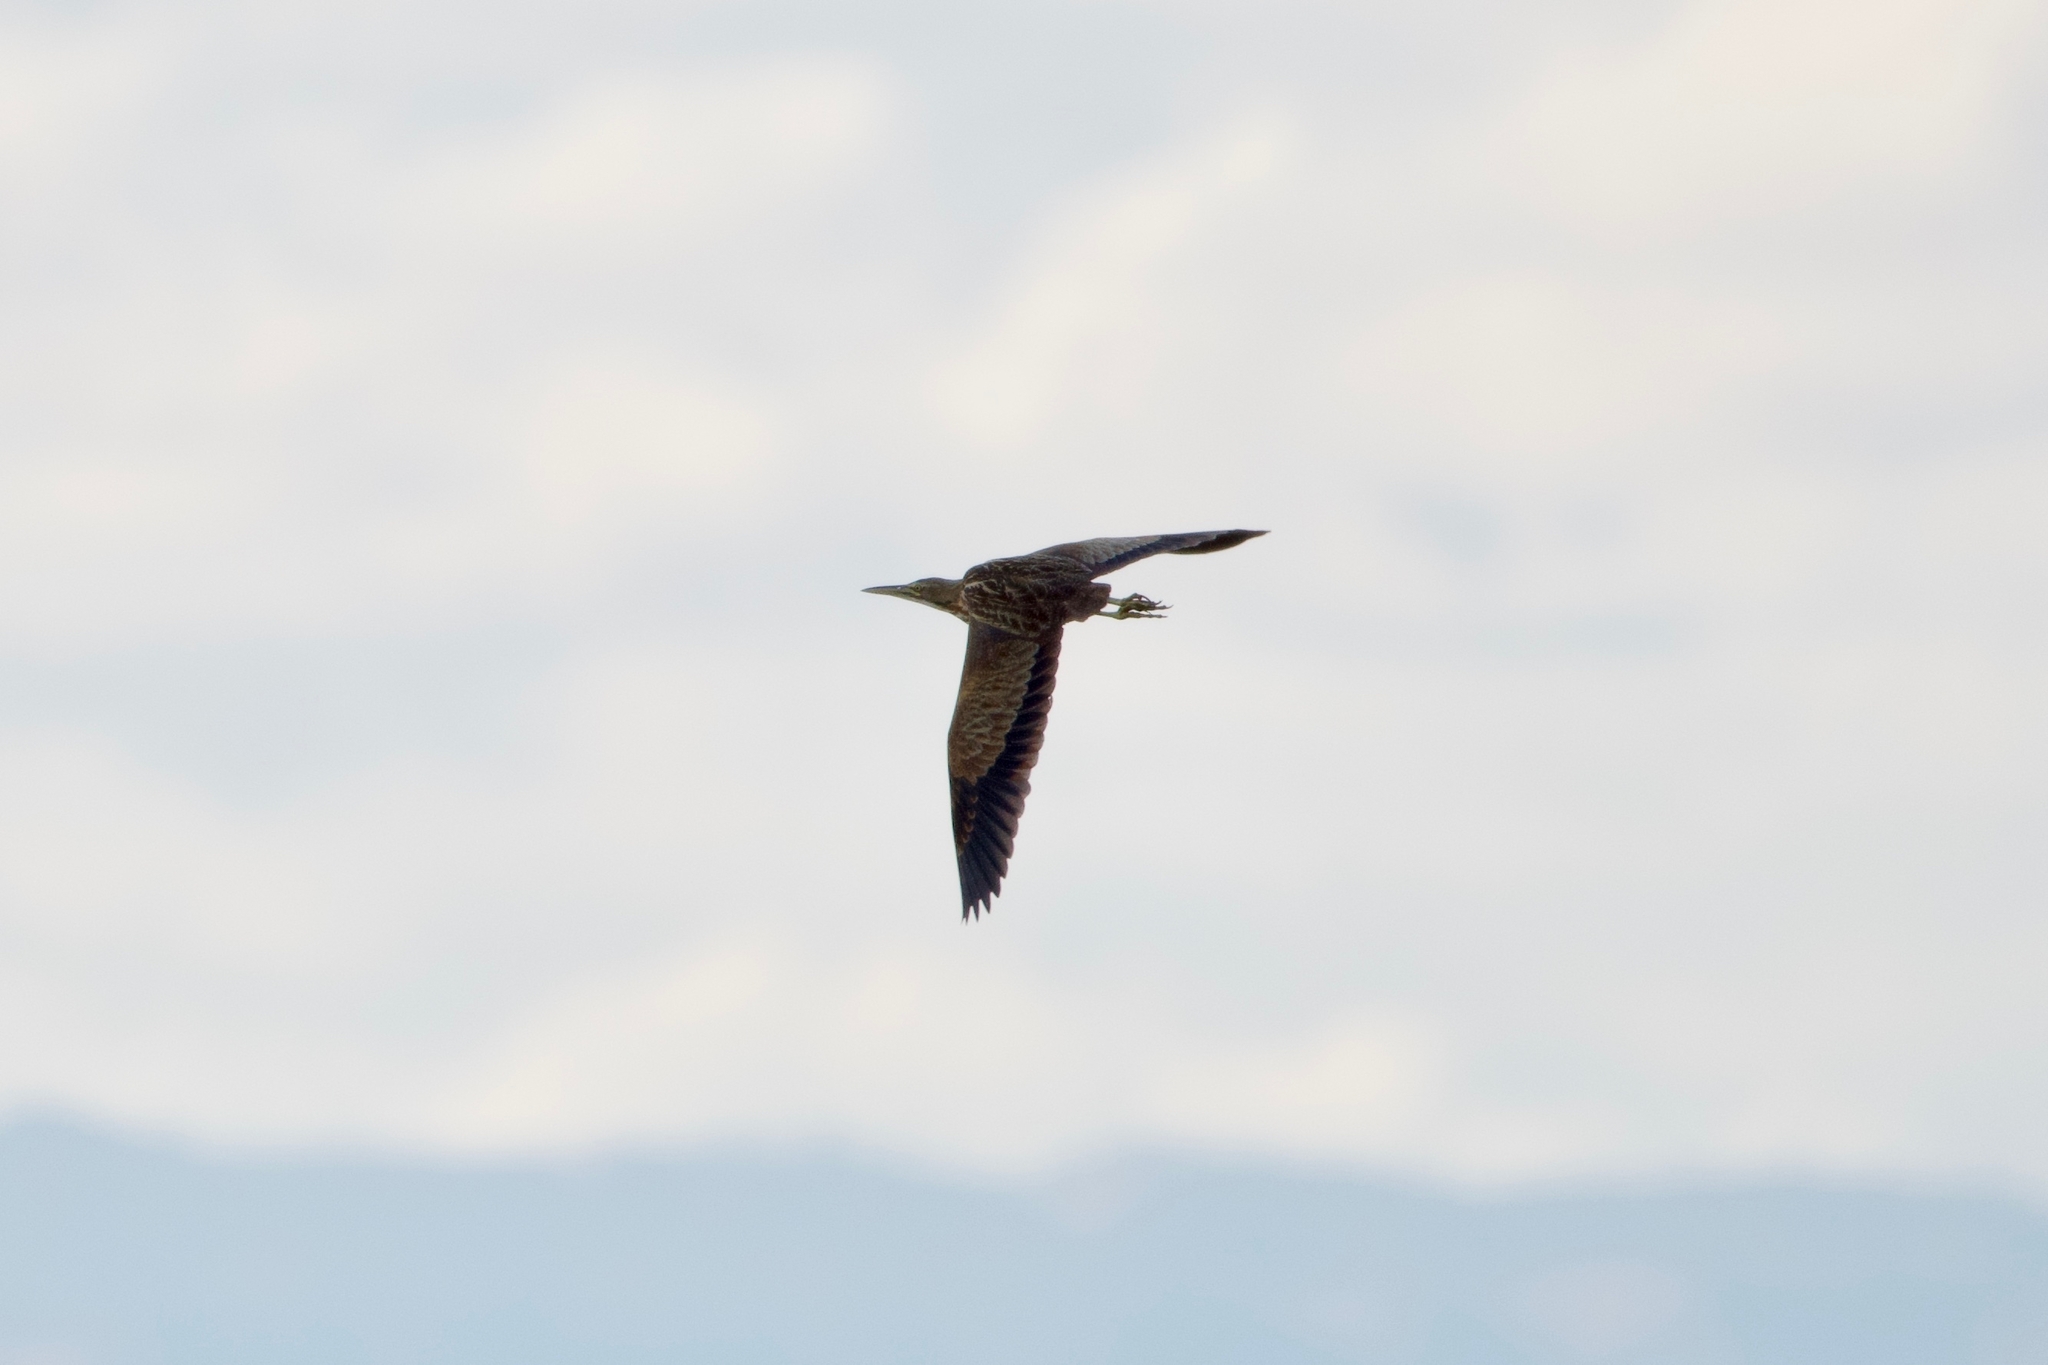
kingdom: Animalia
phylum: Chordata
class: Aves
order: Pelecaniformes
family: Ardeidae
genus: Botaurus
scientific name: Botaurus lentiginosus
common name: American bittern
